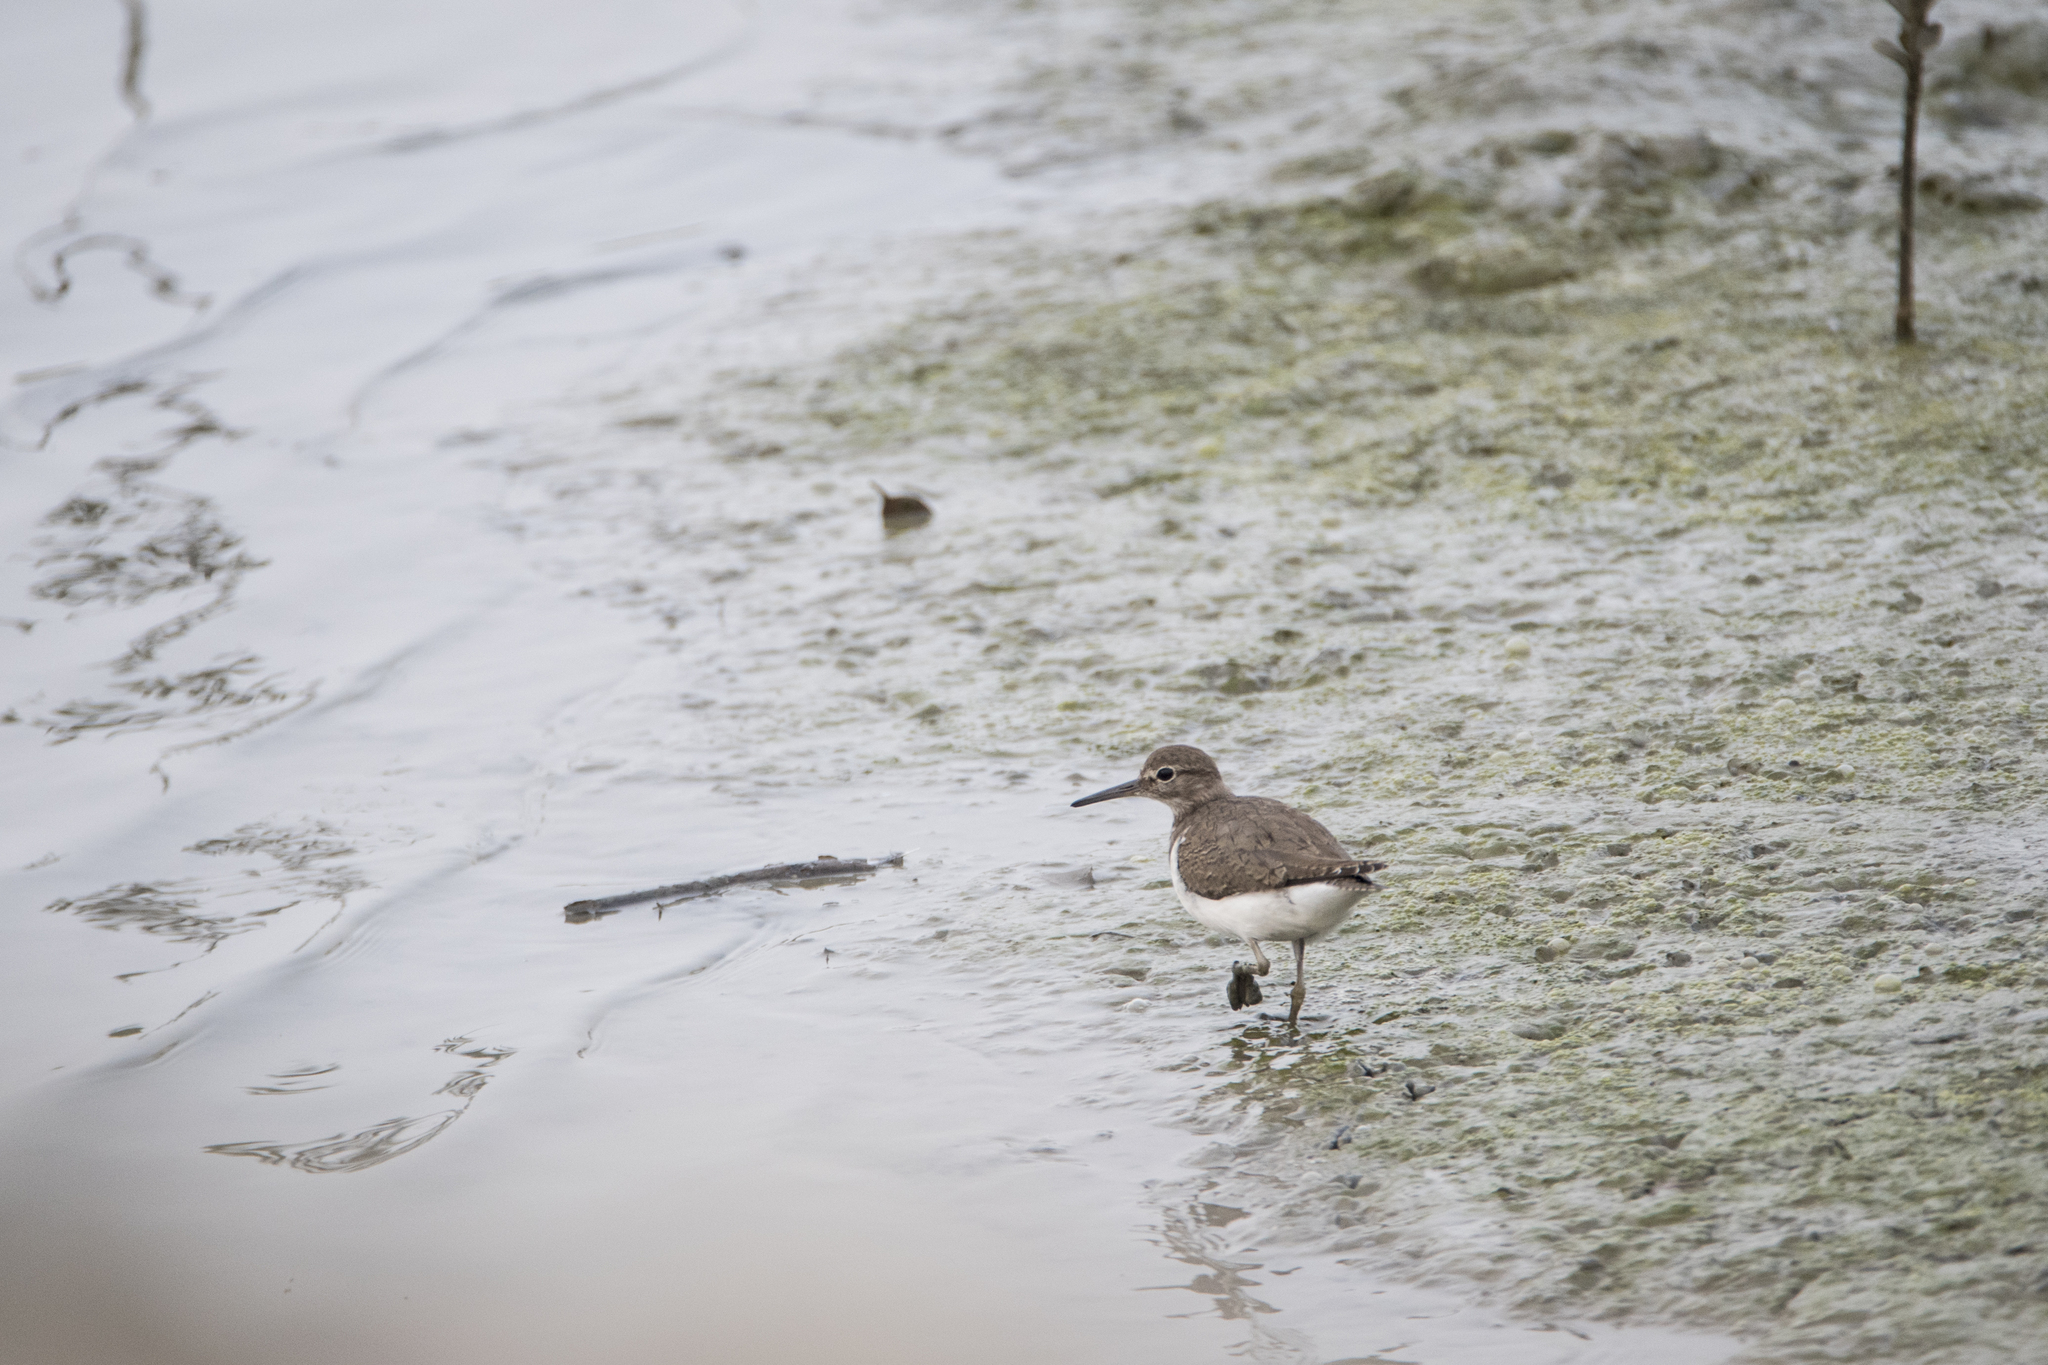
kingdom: Animalia
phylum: Chordata
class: Aves
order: Charadriiformes
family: Scolopacidae
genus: Actitis
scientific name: Actitis hypoleucos
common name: Common sandpiper
